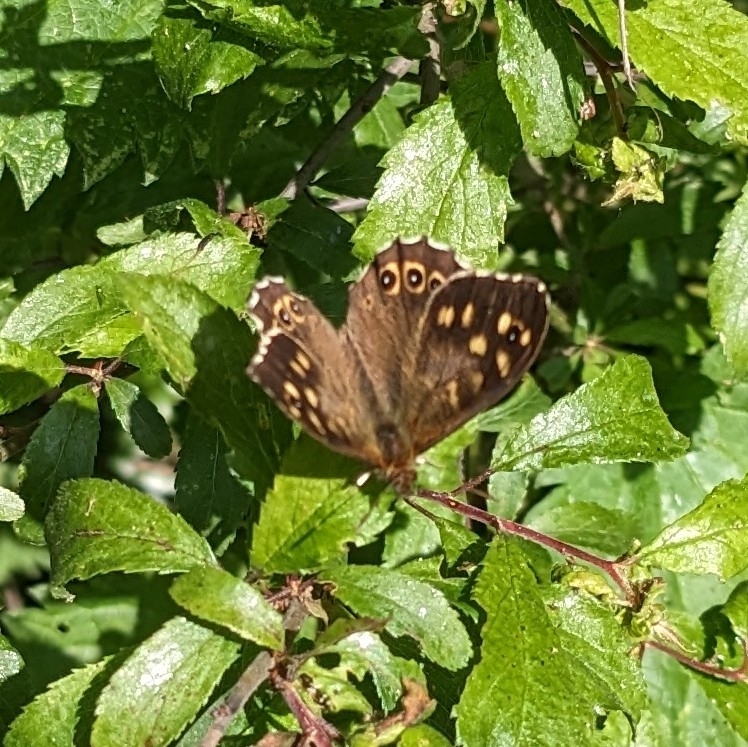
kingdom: Animalia
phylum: Arthropoda
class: Insecta
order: Lepidoptera
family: Nymphalidae
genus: Pararge
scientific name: Pararge aegeria
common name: Speckled wood
